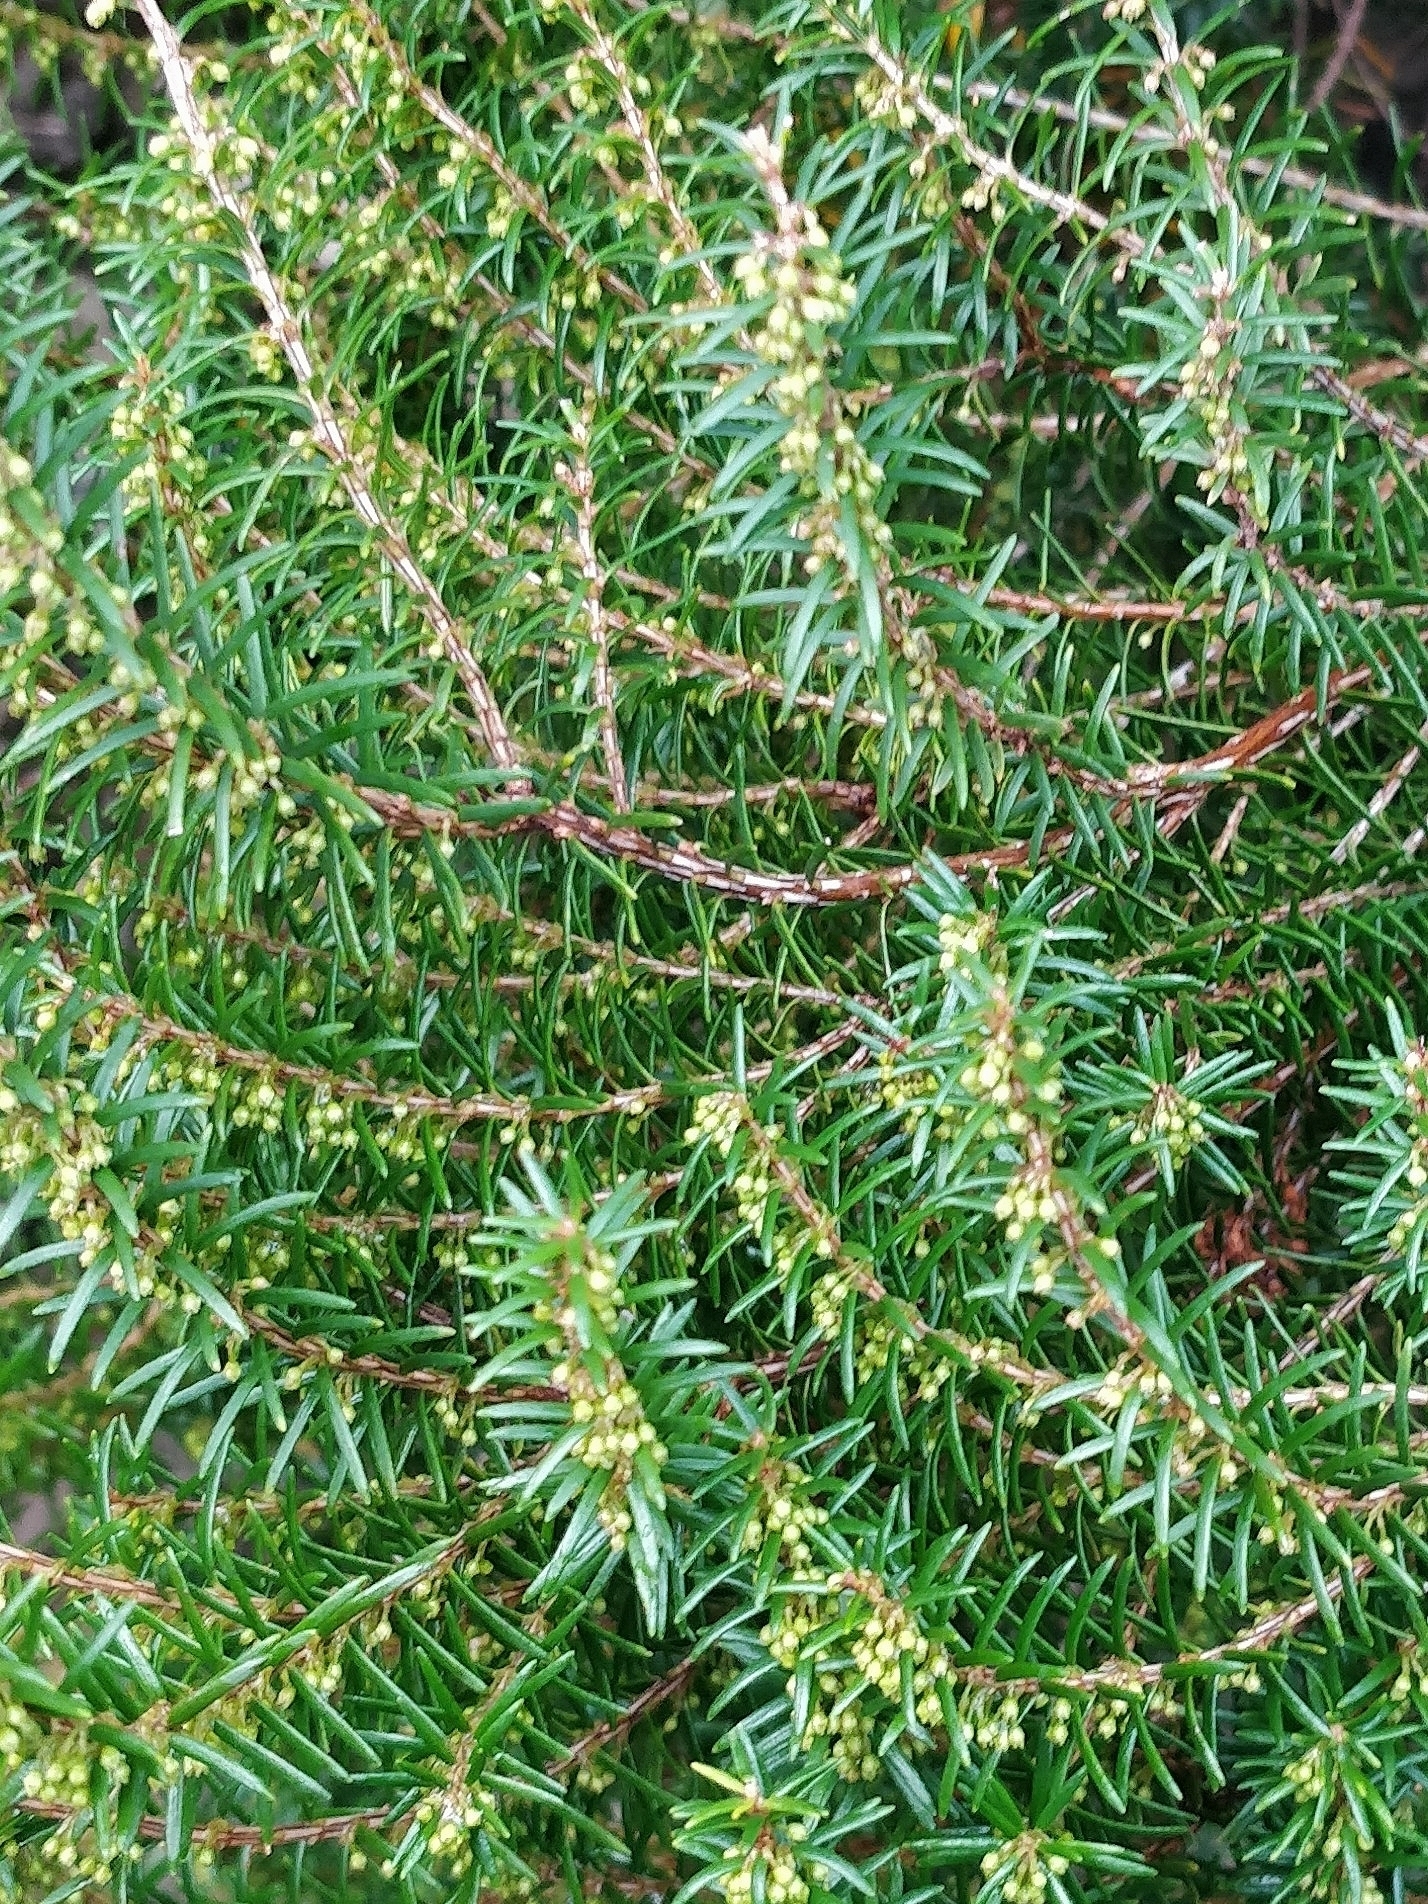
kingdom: Plantae
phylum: Tracheophyta
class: Magnoliopsida
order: Ericales
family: Ericaceae
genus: Erica
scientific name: Erica platycodon
